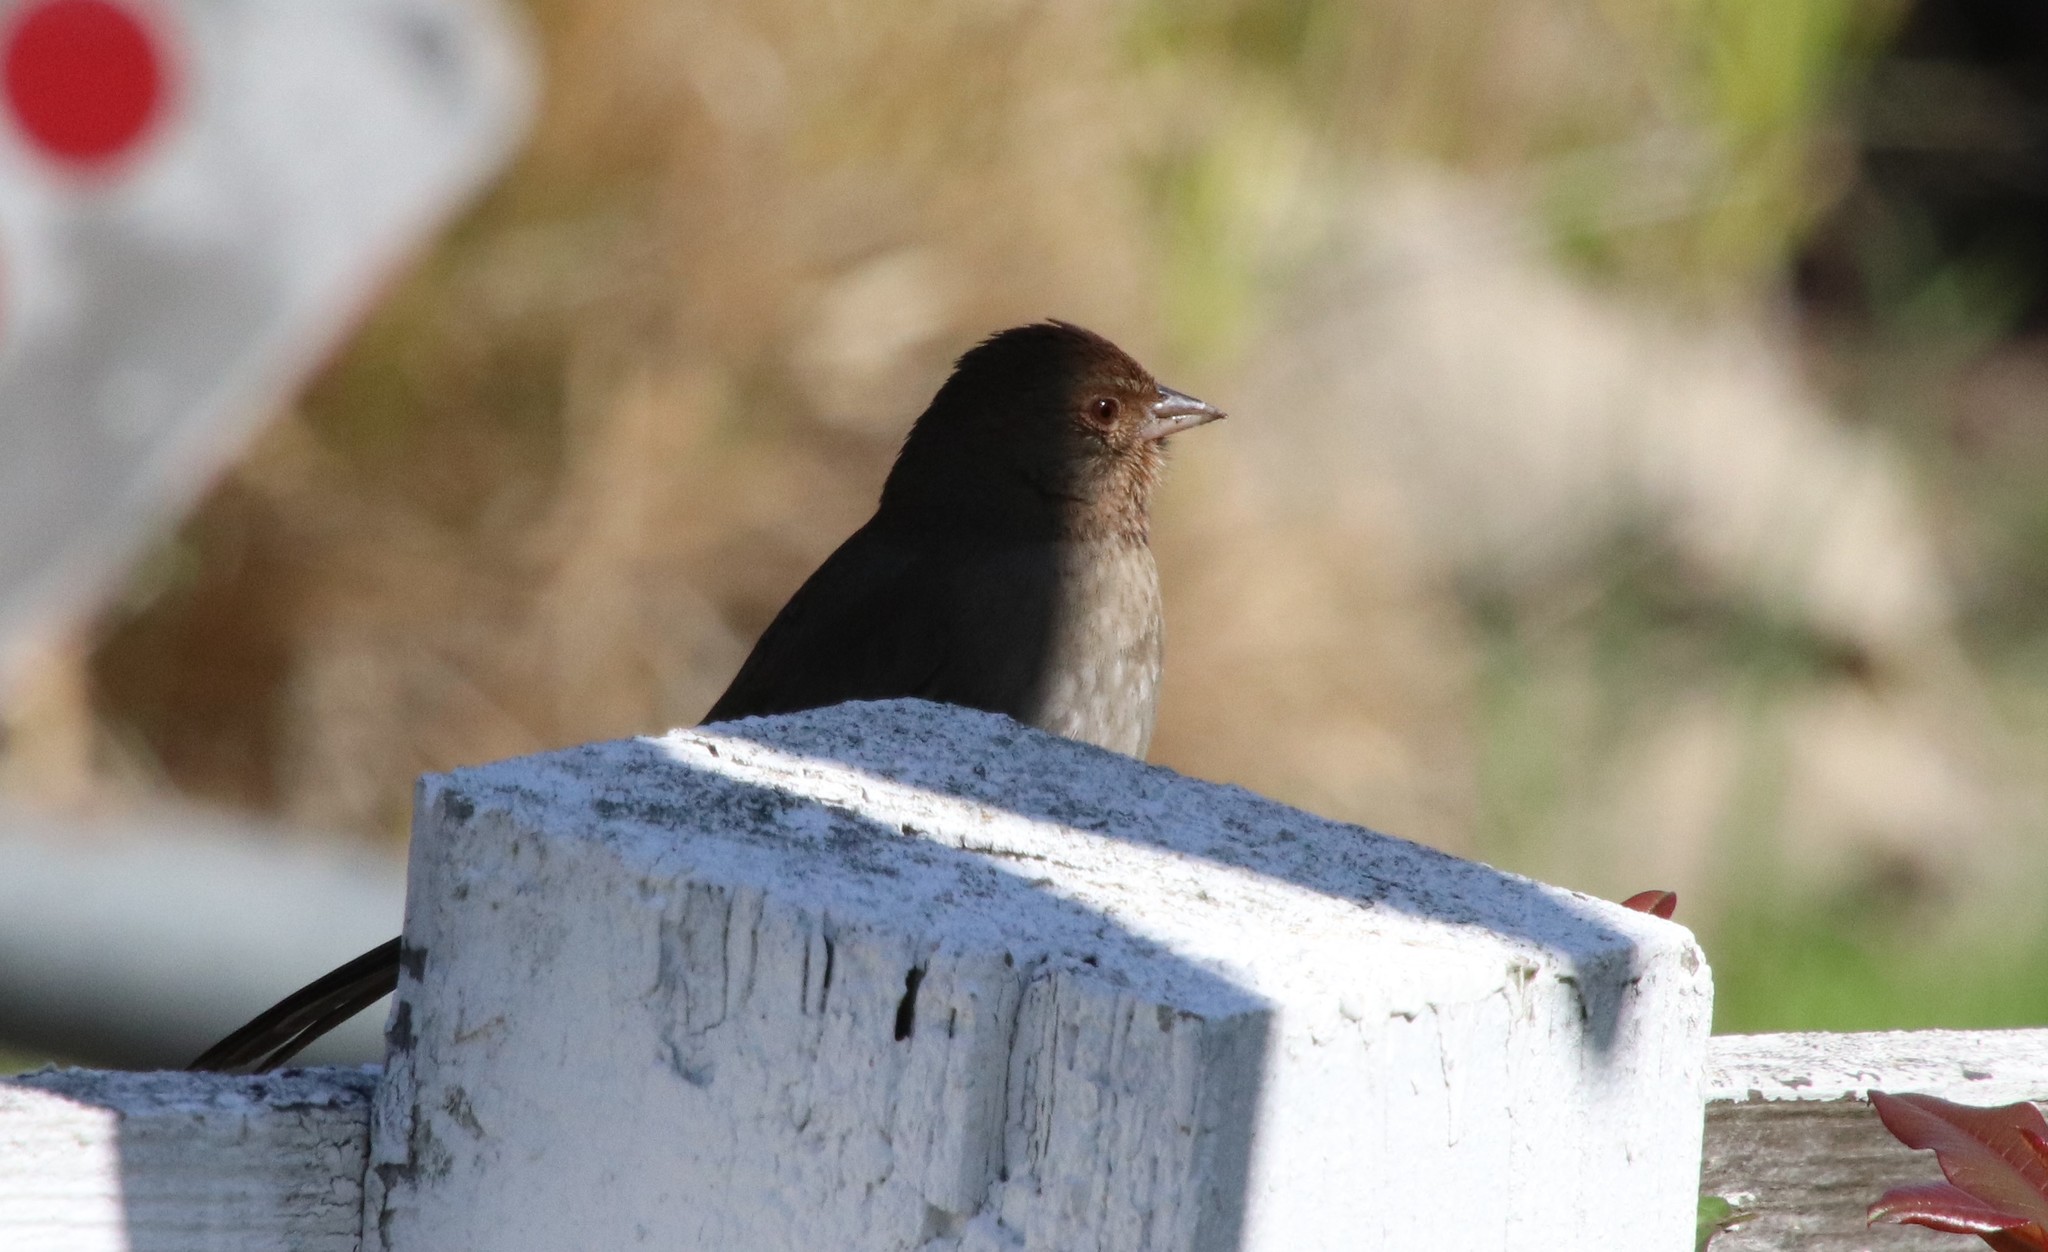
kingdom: Animalia
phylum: Chordata
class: Aves
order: Passeriformes
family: Passerellidae
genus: Melozone
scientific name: Melozone crissalis
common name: California towhee
